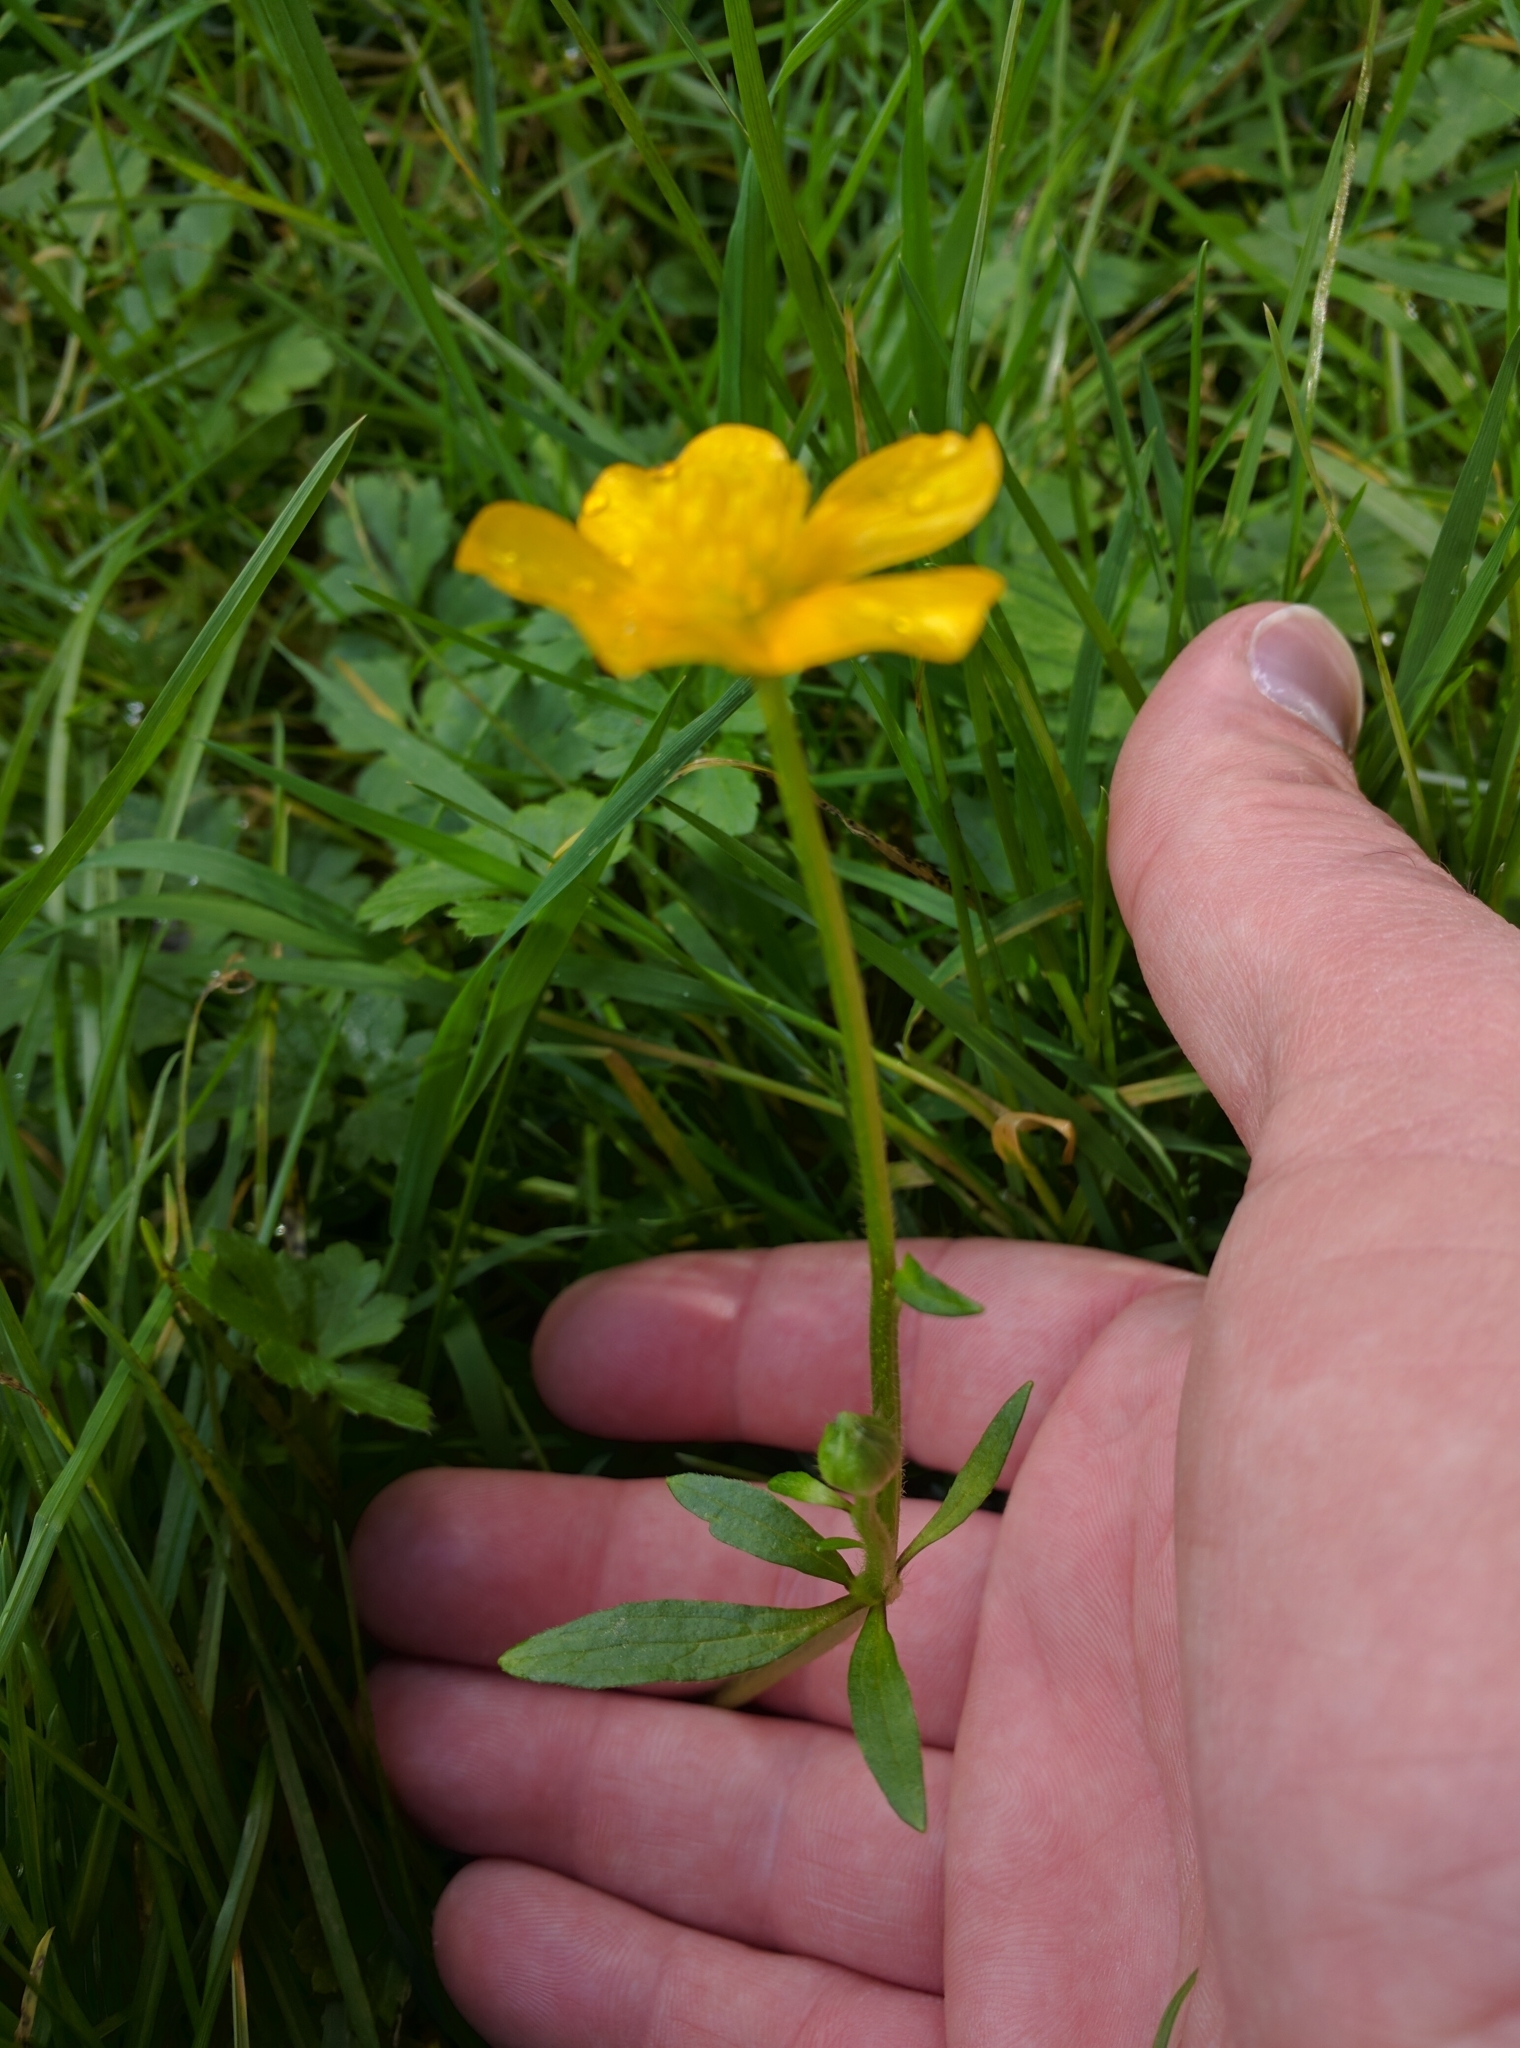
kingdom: Plantae
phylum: Tracheophyta
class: Magnoliopsida
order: Ranunculales
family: Ranunculaceae
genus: Ranunculus
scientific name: Ranunculus repens
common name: Creeping buttercup
